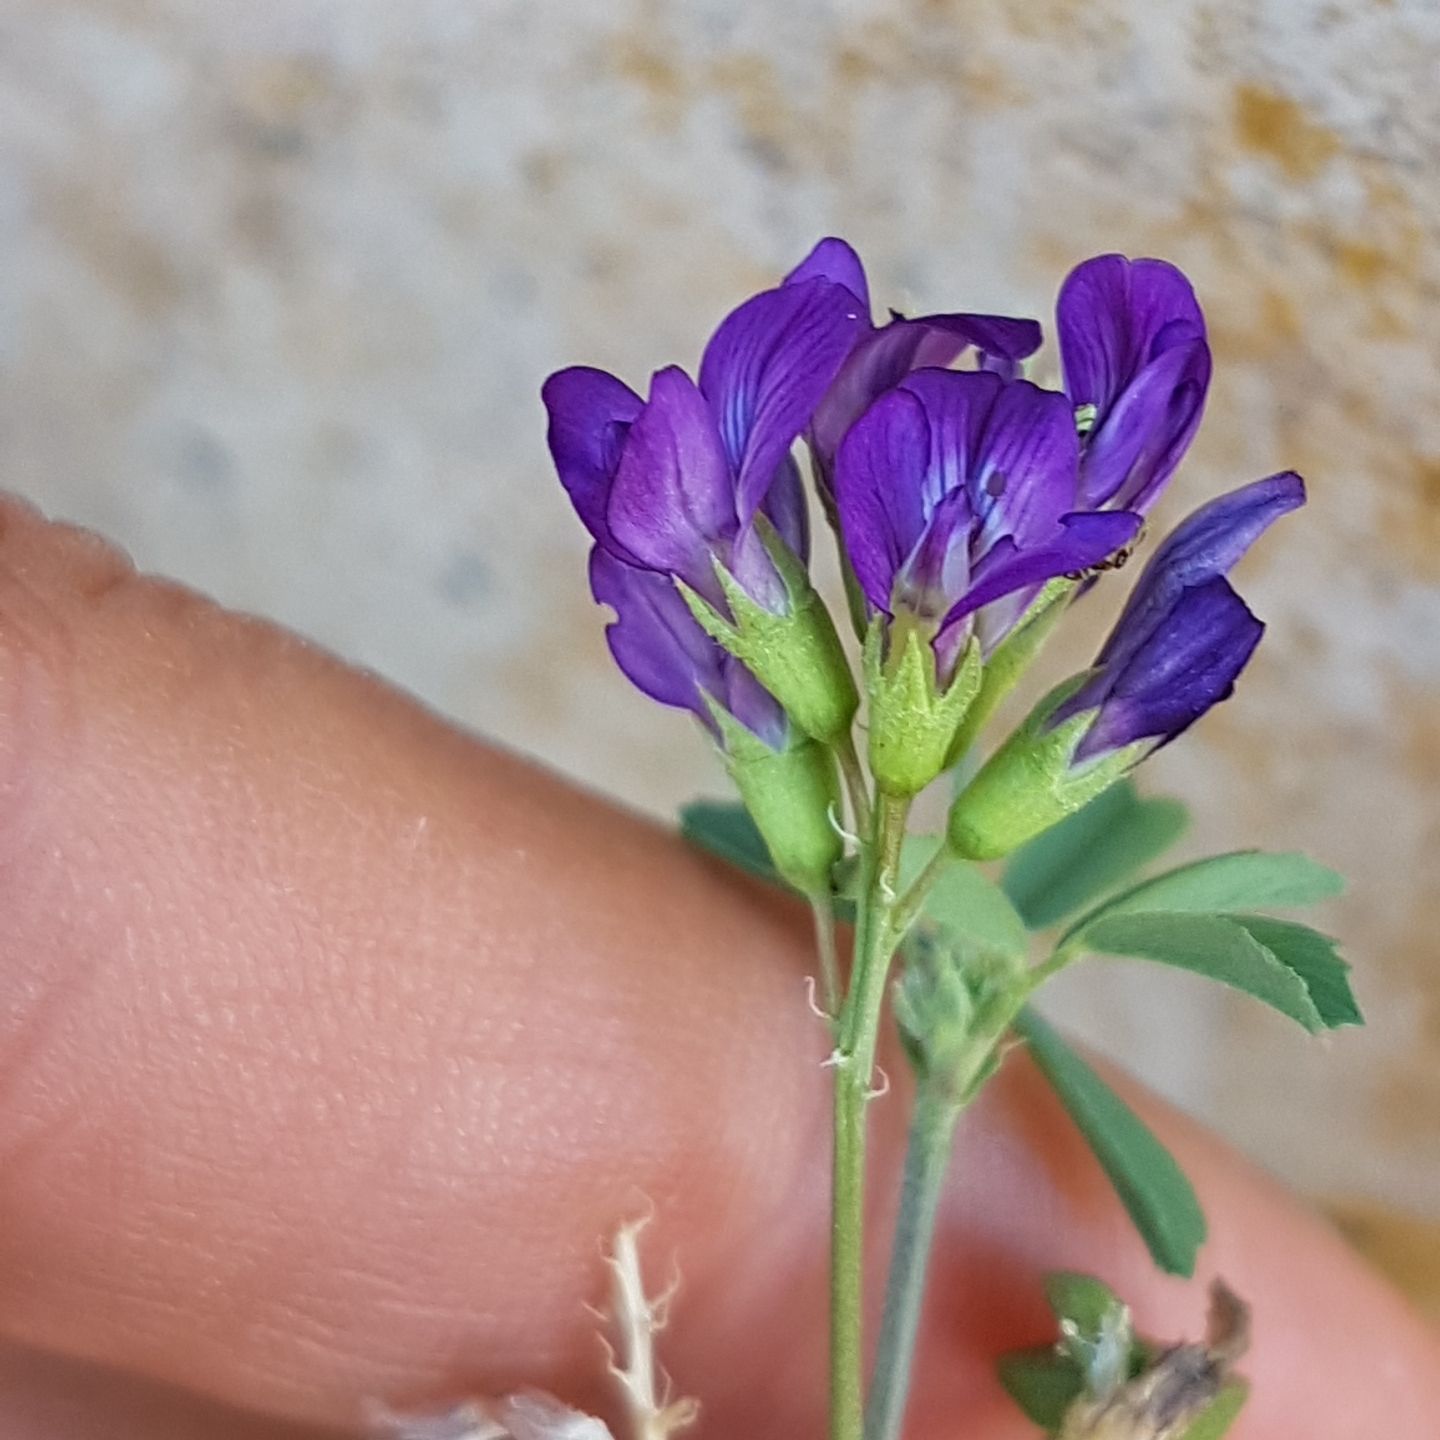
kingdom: Plantae
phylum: Tracheophyta
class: Magnoliopsida
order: Fabales
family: Fabaceae
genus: Medicago
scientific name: Medicago sativa
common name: Alfalfa
